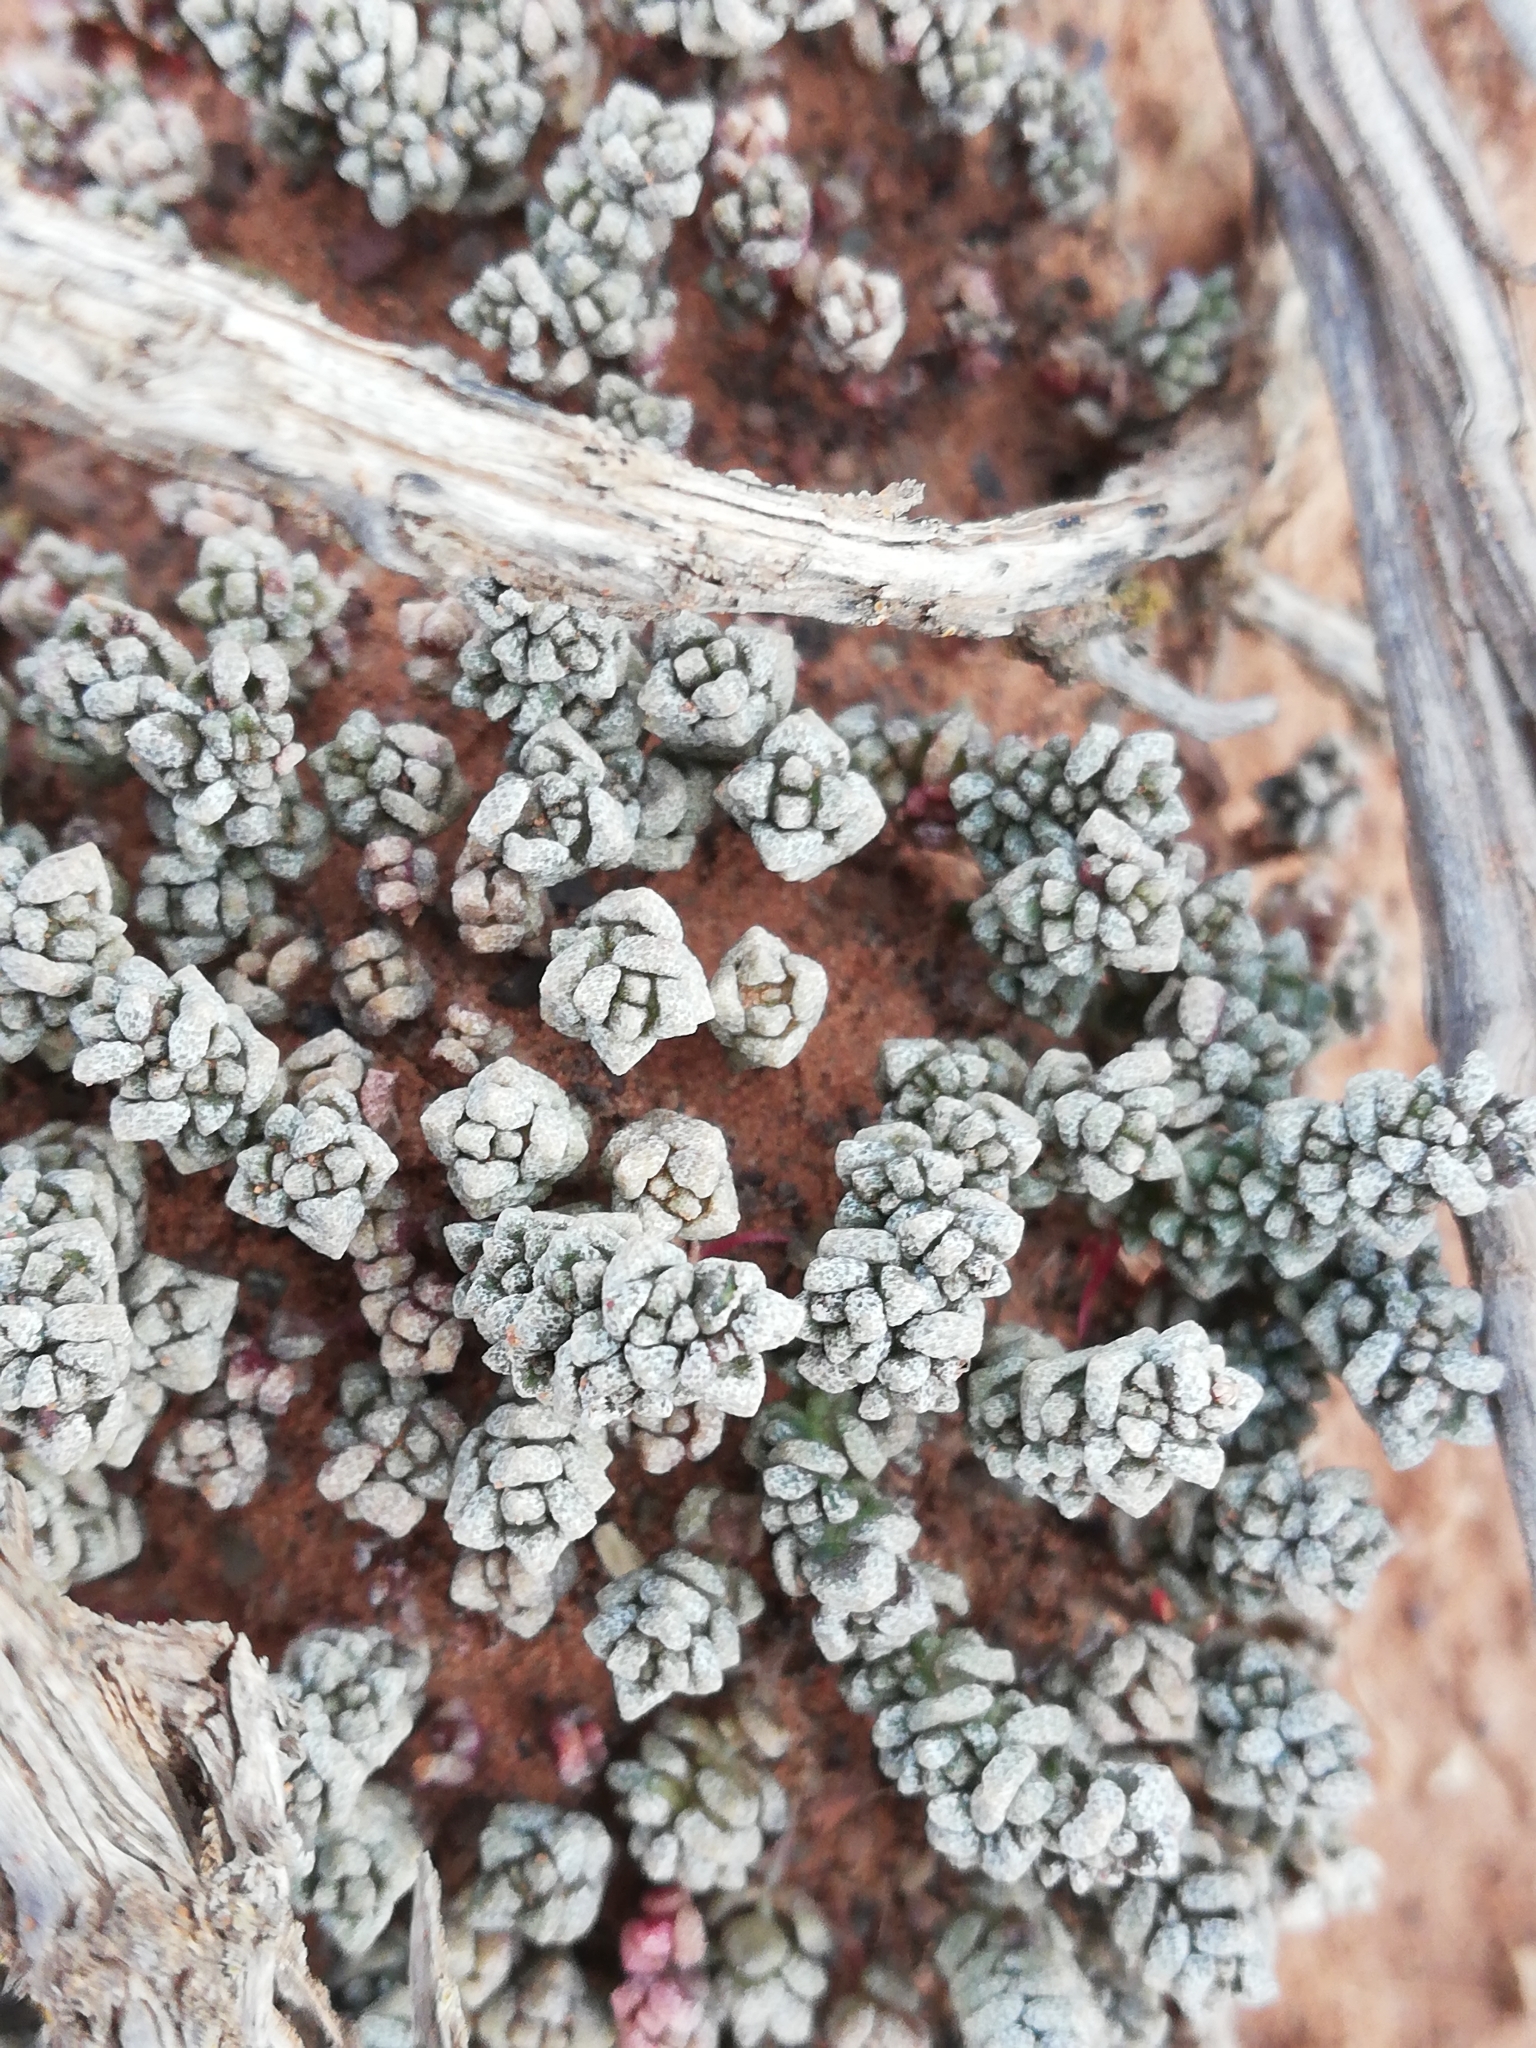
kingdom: Plantae
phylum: Tracheophyta
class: Magnoliopsida
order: Saxifragales
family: Crassulaceae
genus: Crassula
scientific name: Crassula corallina
